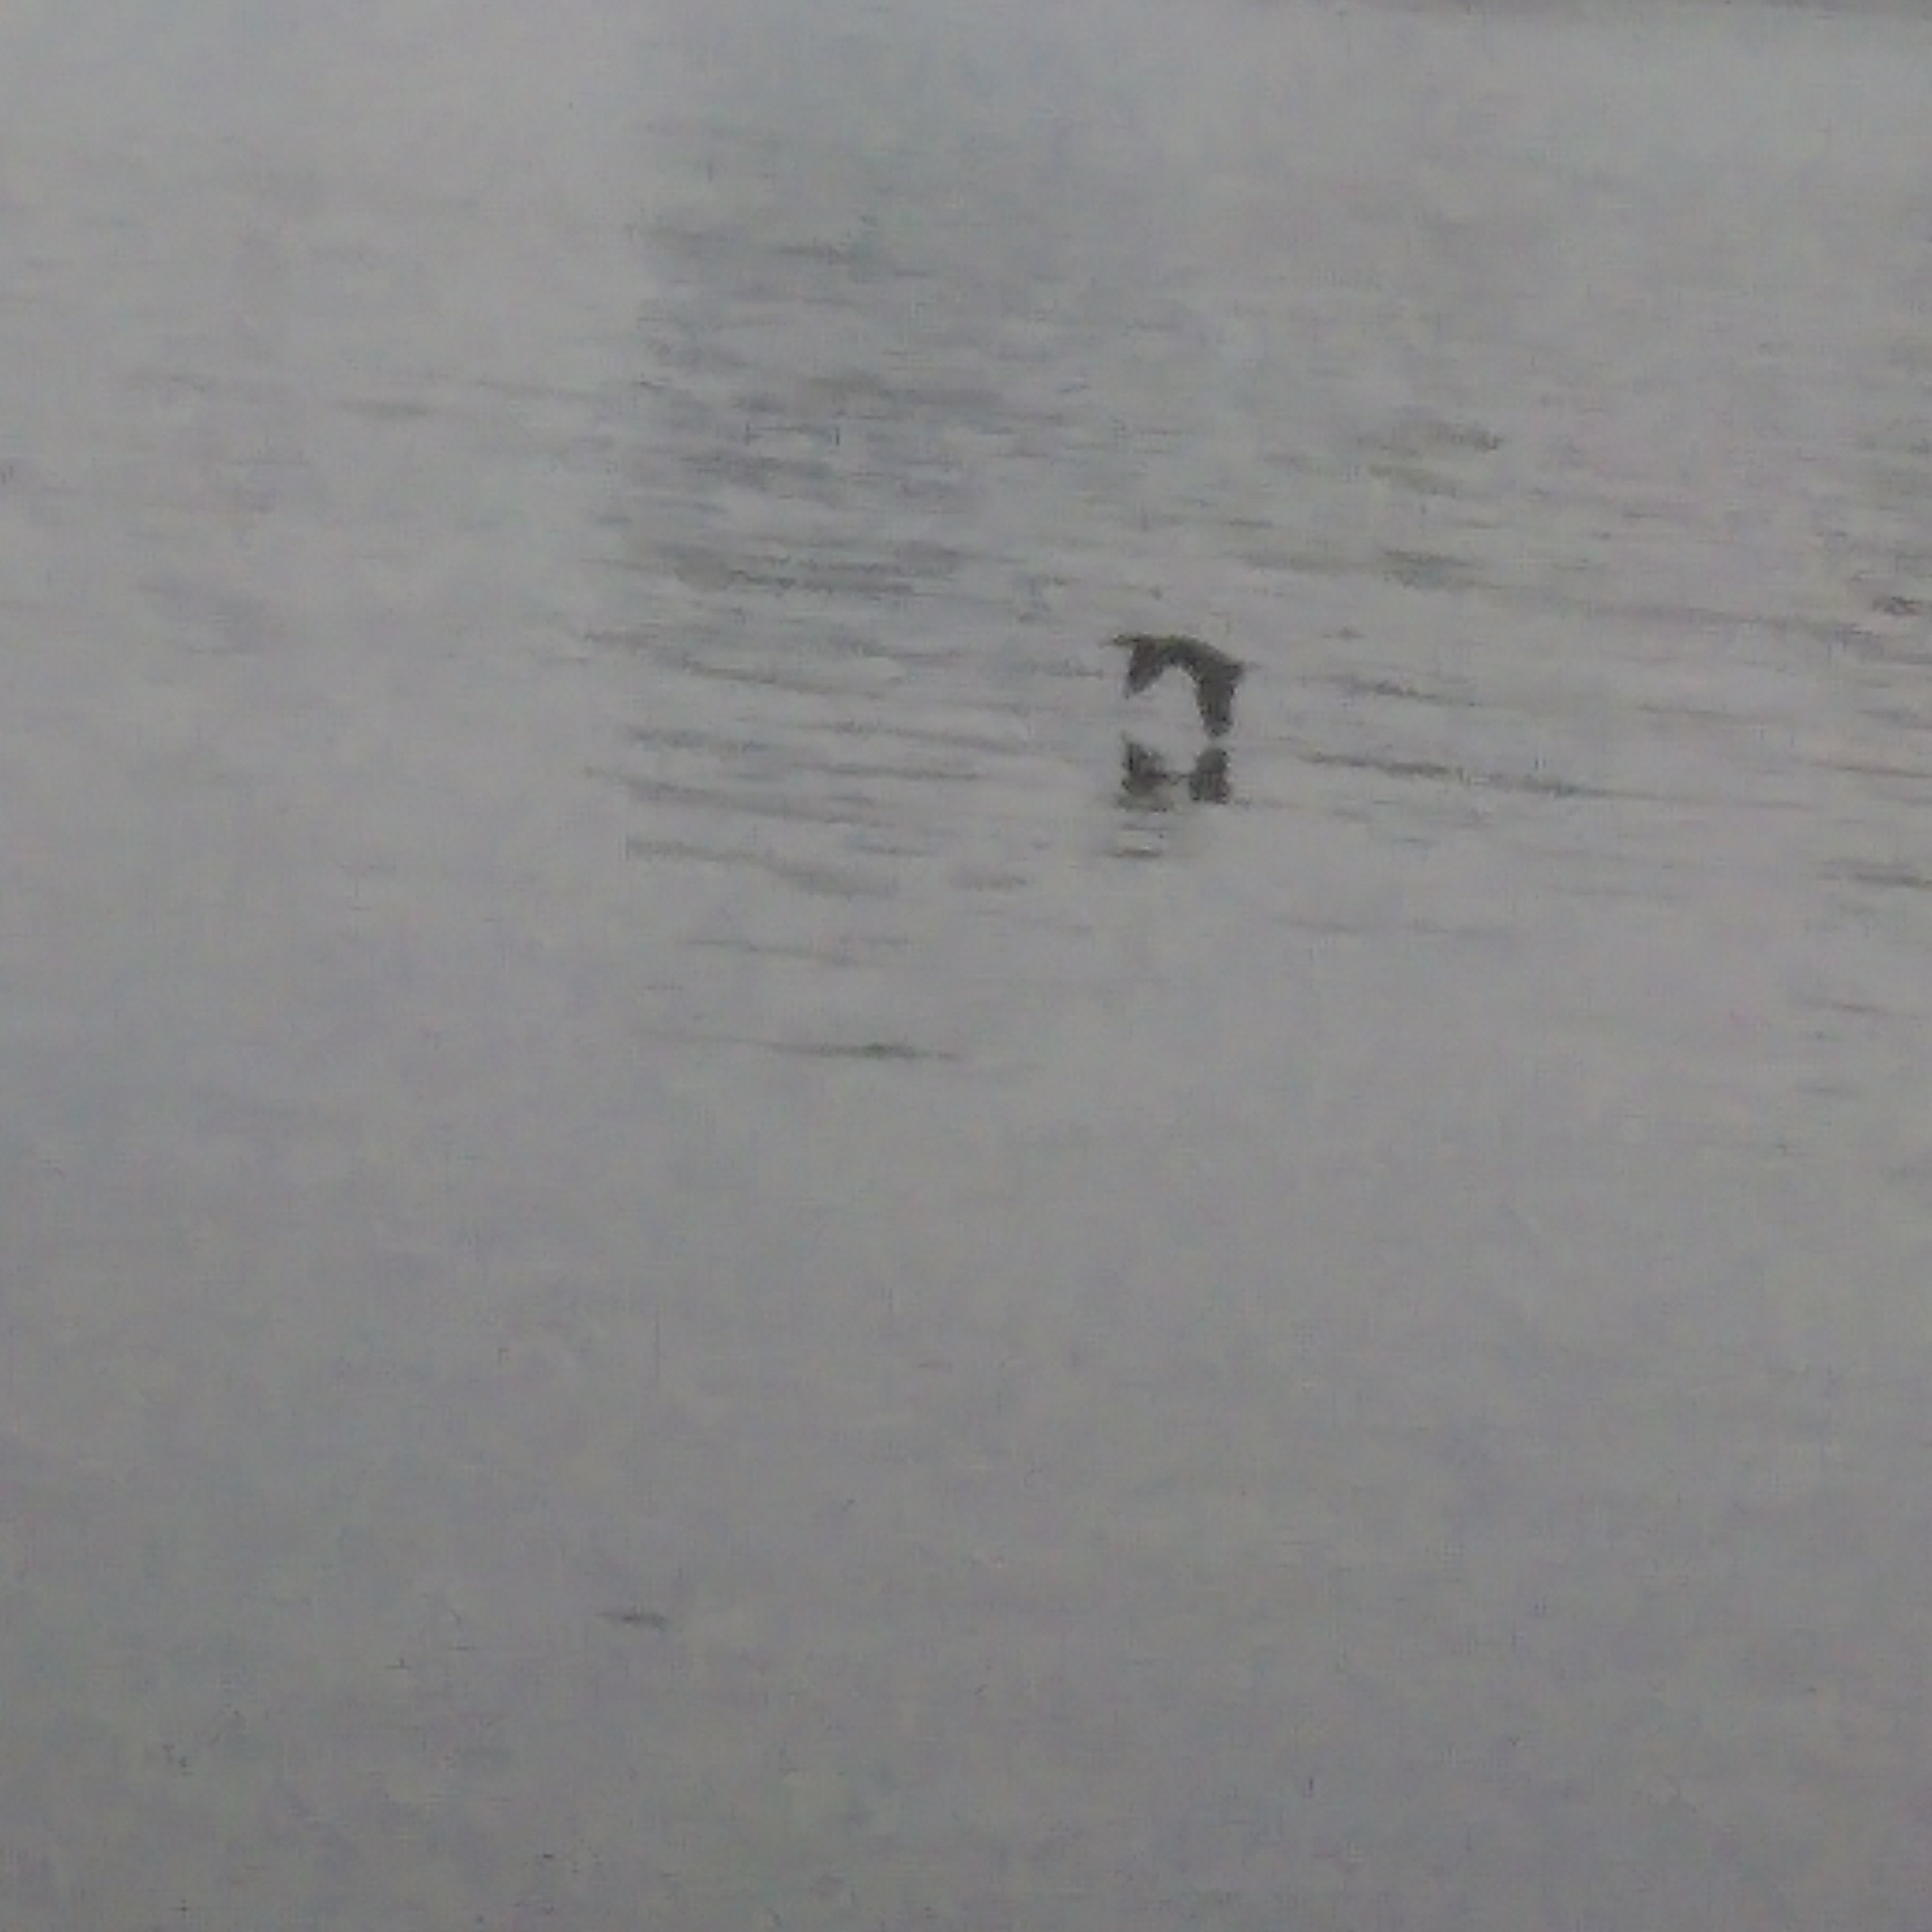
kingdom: Animalia
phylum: Chordata
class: Aves
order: Suliformes
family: Phalacrocoracidae
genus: Phalacrocorax
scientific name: Phalacrocorax auritus
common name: Double-crested cormorant
